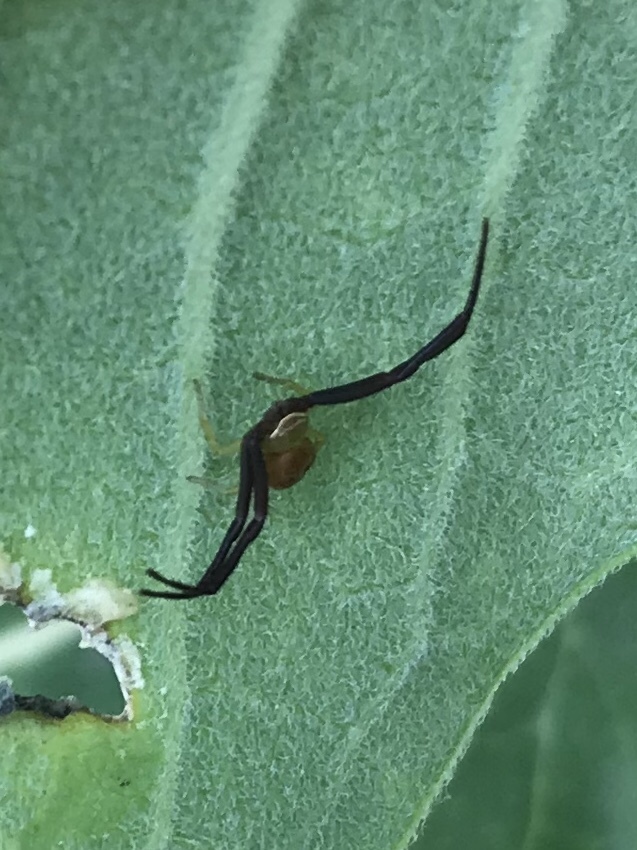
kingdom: Animalia
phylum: Arthropoda
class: Arachnida
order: Araneae
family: Thomisidae
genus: Misumenoides
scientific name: Misumenoides formosipes
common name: White-banded crab spider
